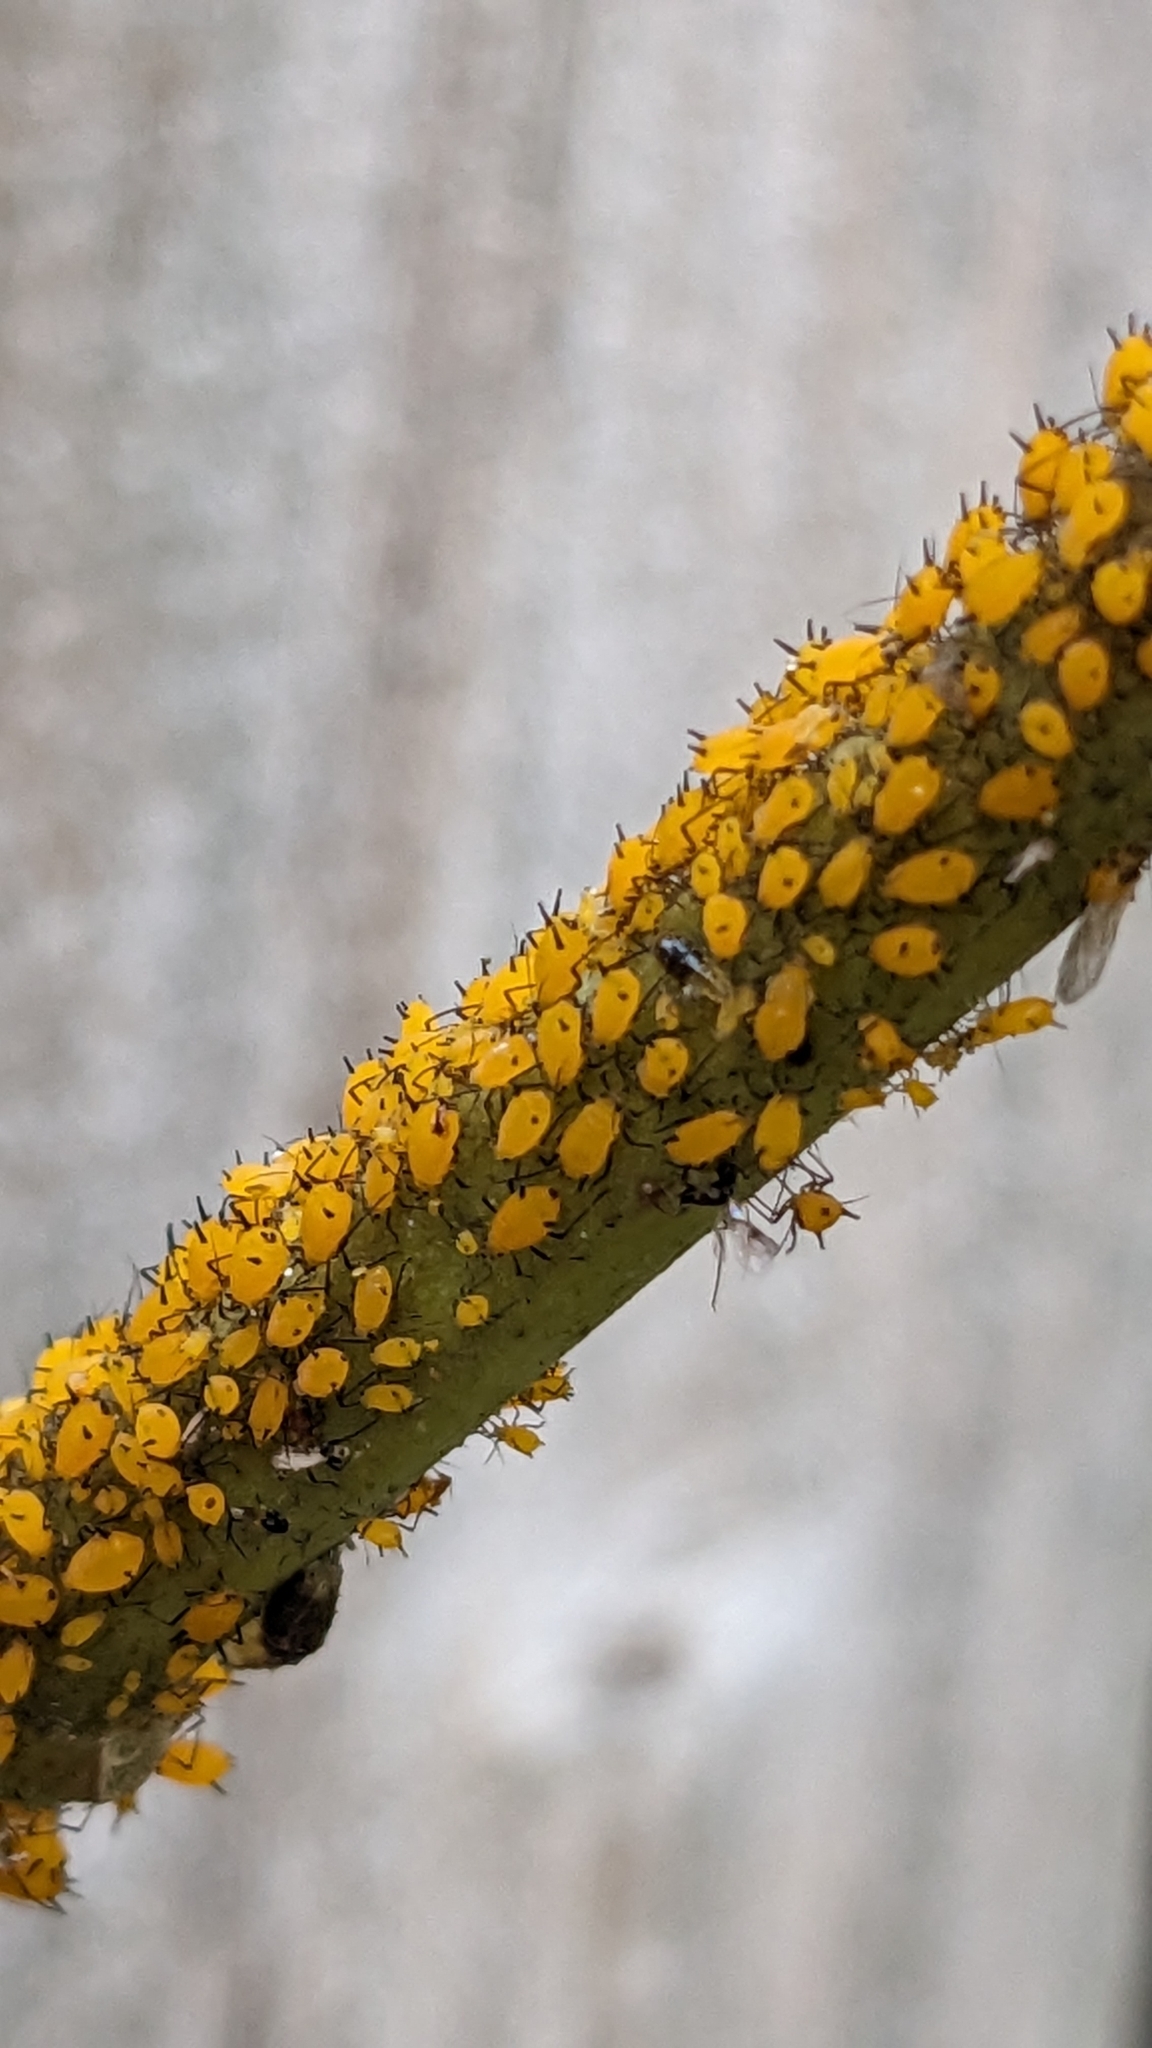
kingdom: Animalia
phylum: Arthropoda
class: Insecta
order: Hemiptera
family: Aphididae
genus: Aphis
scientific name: Aphis nerii
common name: Oleander aphid
